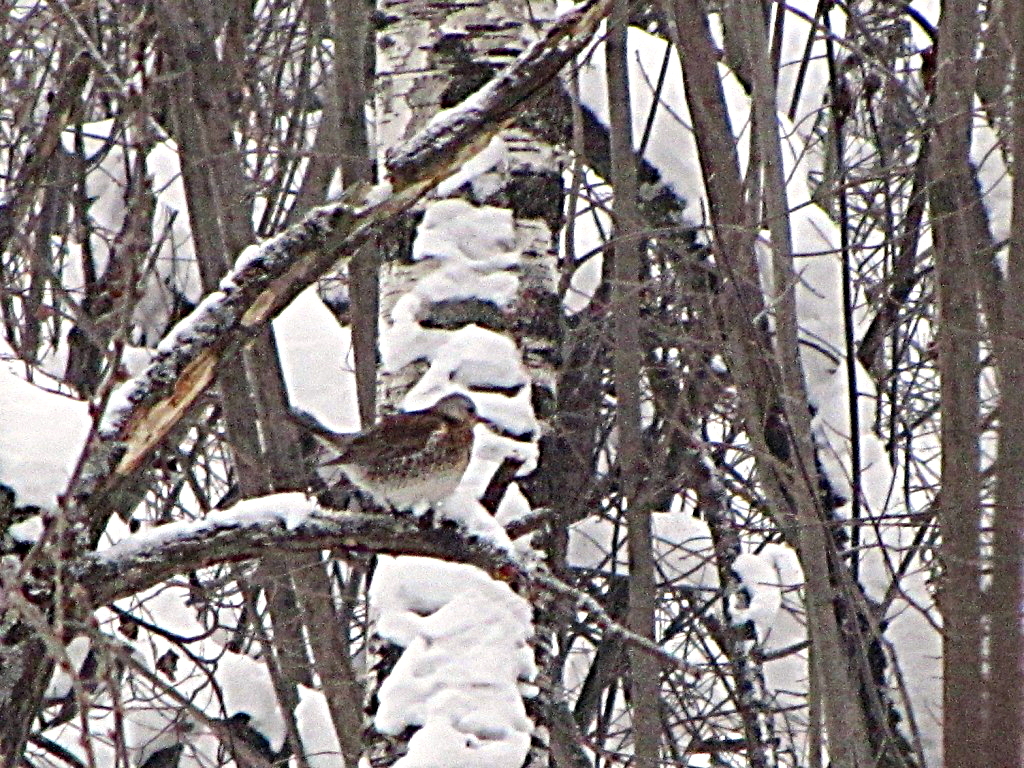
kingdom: Animalia
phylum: Chordata
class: Aves
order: Passeriformes
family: Turdidae
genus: Turdus
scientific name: Turdus pilaris
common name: Fieldfare
